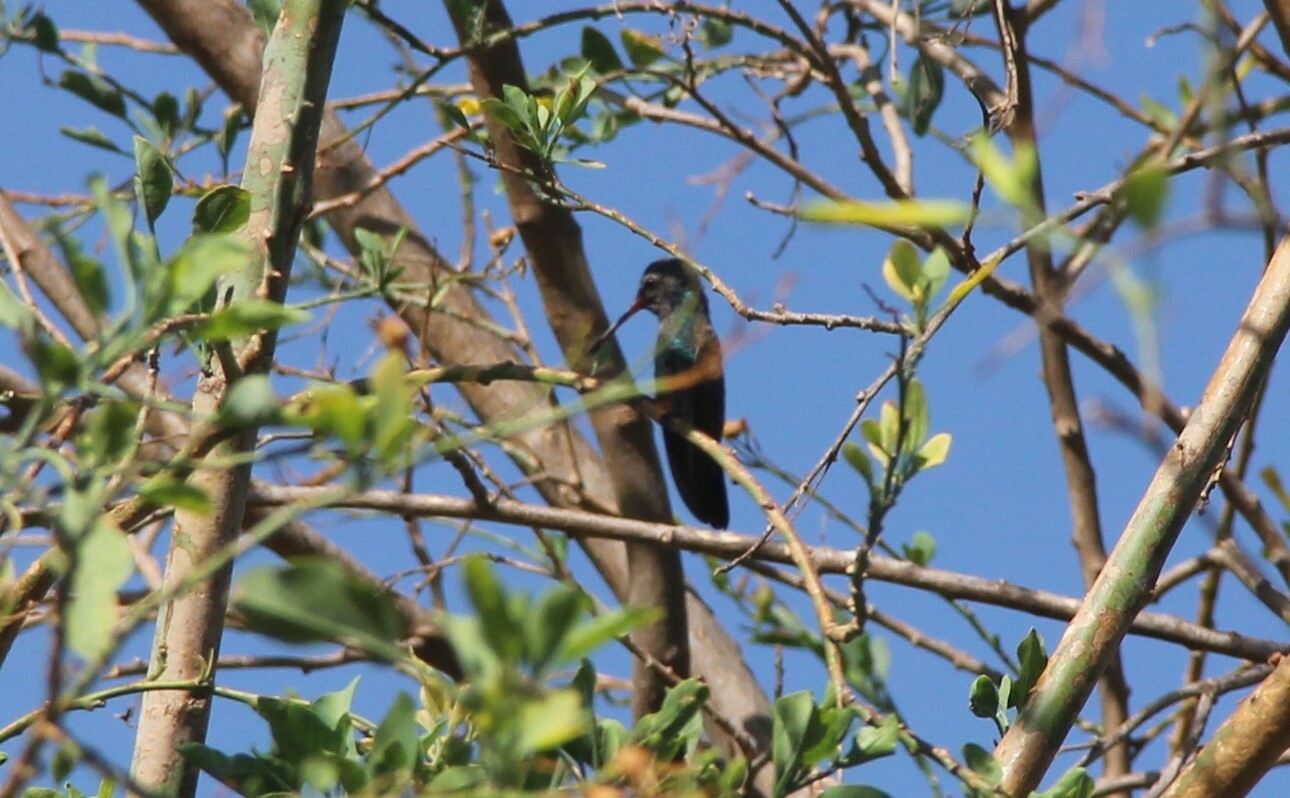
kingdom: Animalia
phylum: Chordata
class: Aves
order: Apodiformes
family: Trochilidae
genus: Cynanthus
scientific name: Cynanthus latirostris
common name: Broad-billed hummingbird
